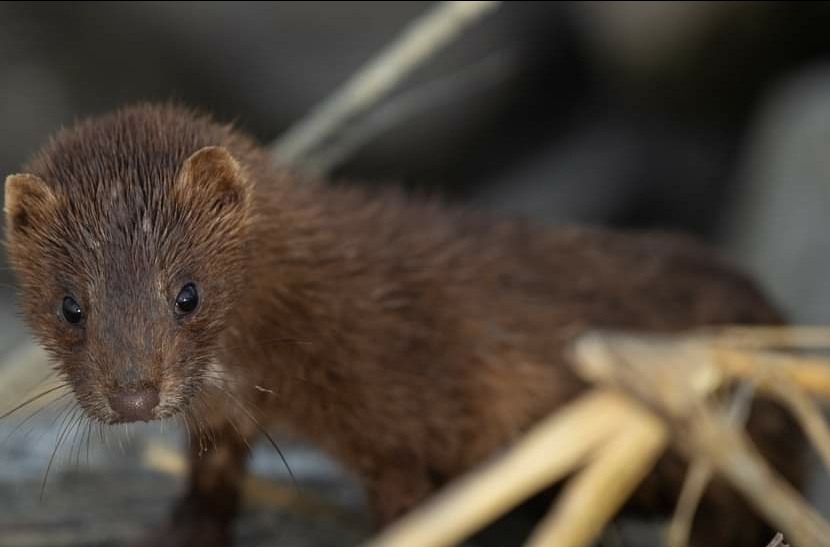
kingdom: Animalia
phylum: Chordata
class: Mammalia
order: Carnivora
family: Mustelidae
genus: Mustela
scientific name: Mustela
